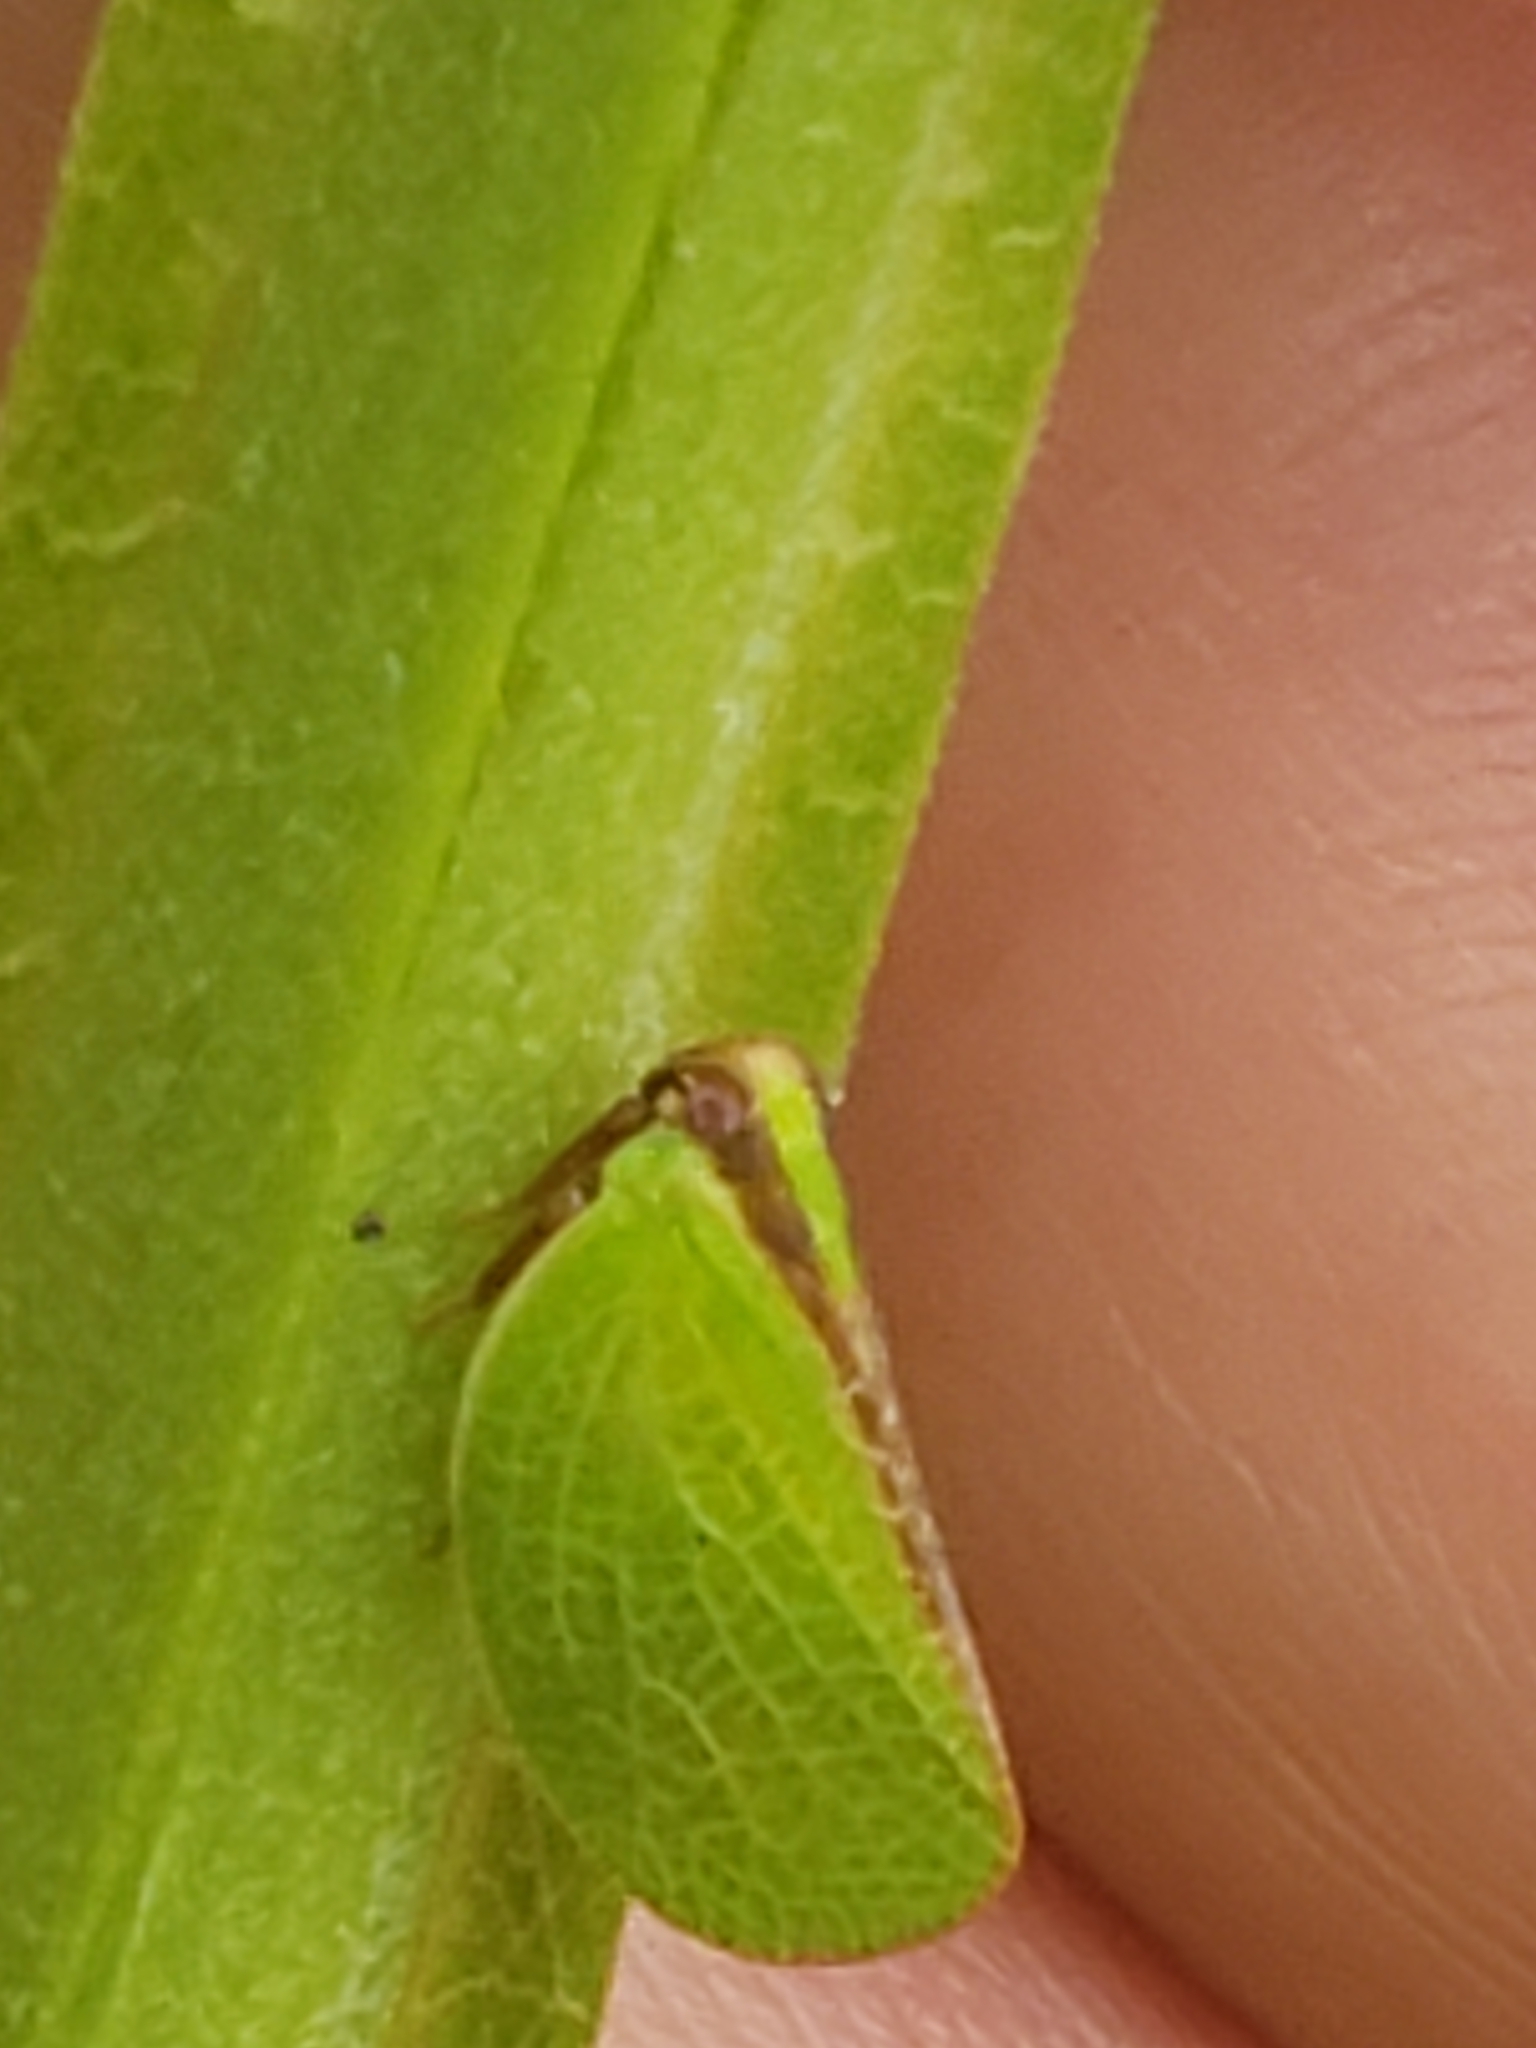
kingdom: Animalia
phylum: Arthropoda
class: Insecta
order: Hemiptera
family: Acanaloniidae
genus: Acanalonia
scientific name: Acanalonia bivittata
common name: Two-striped planthopper
